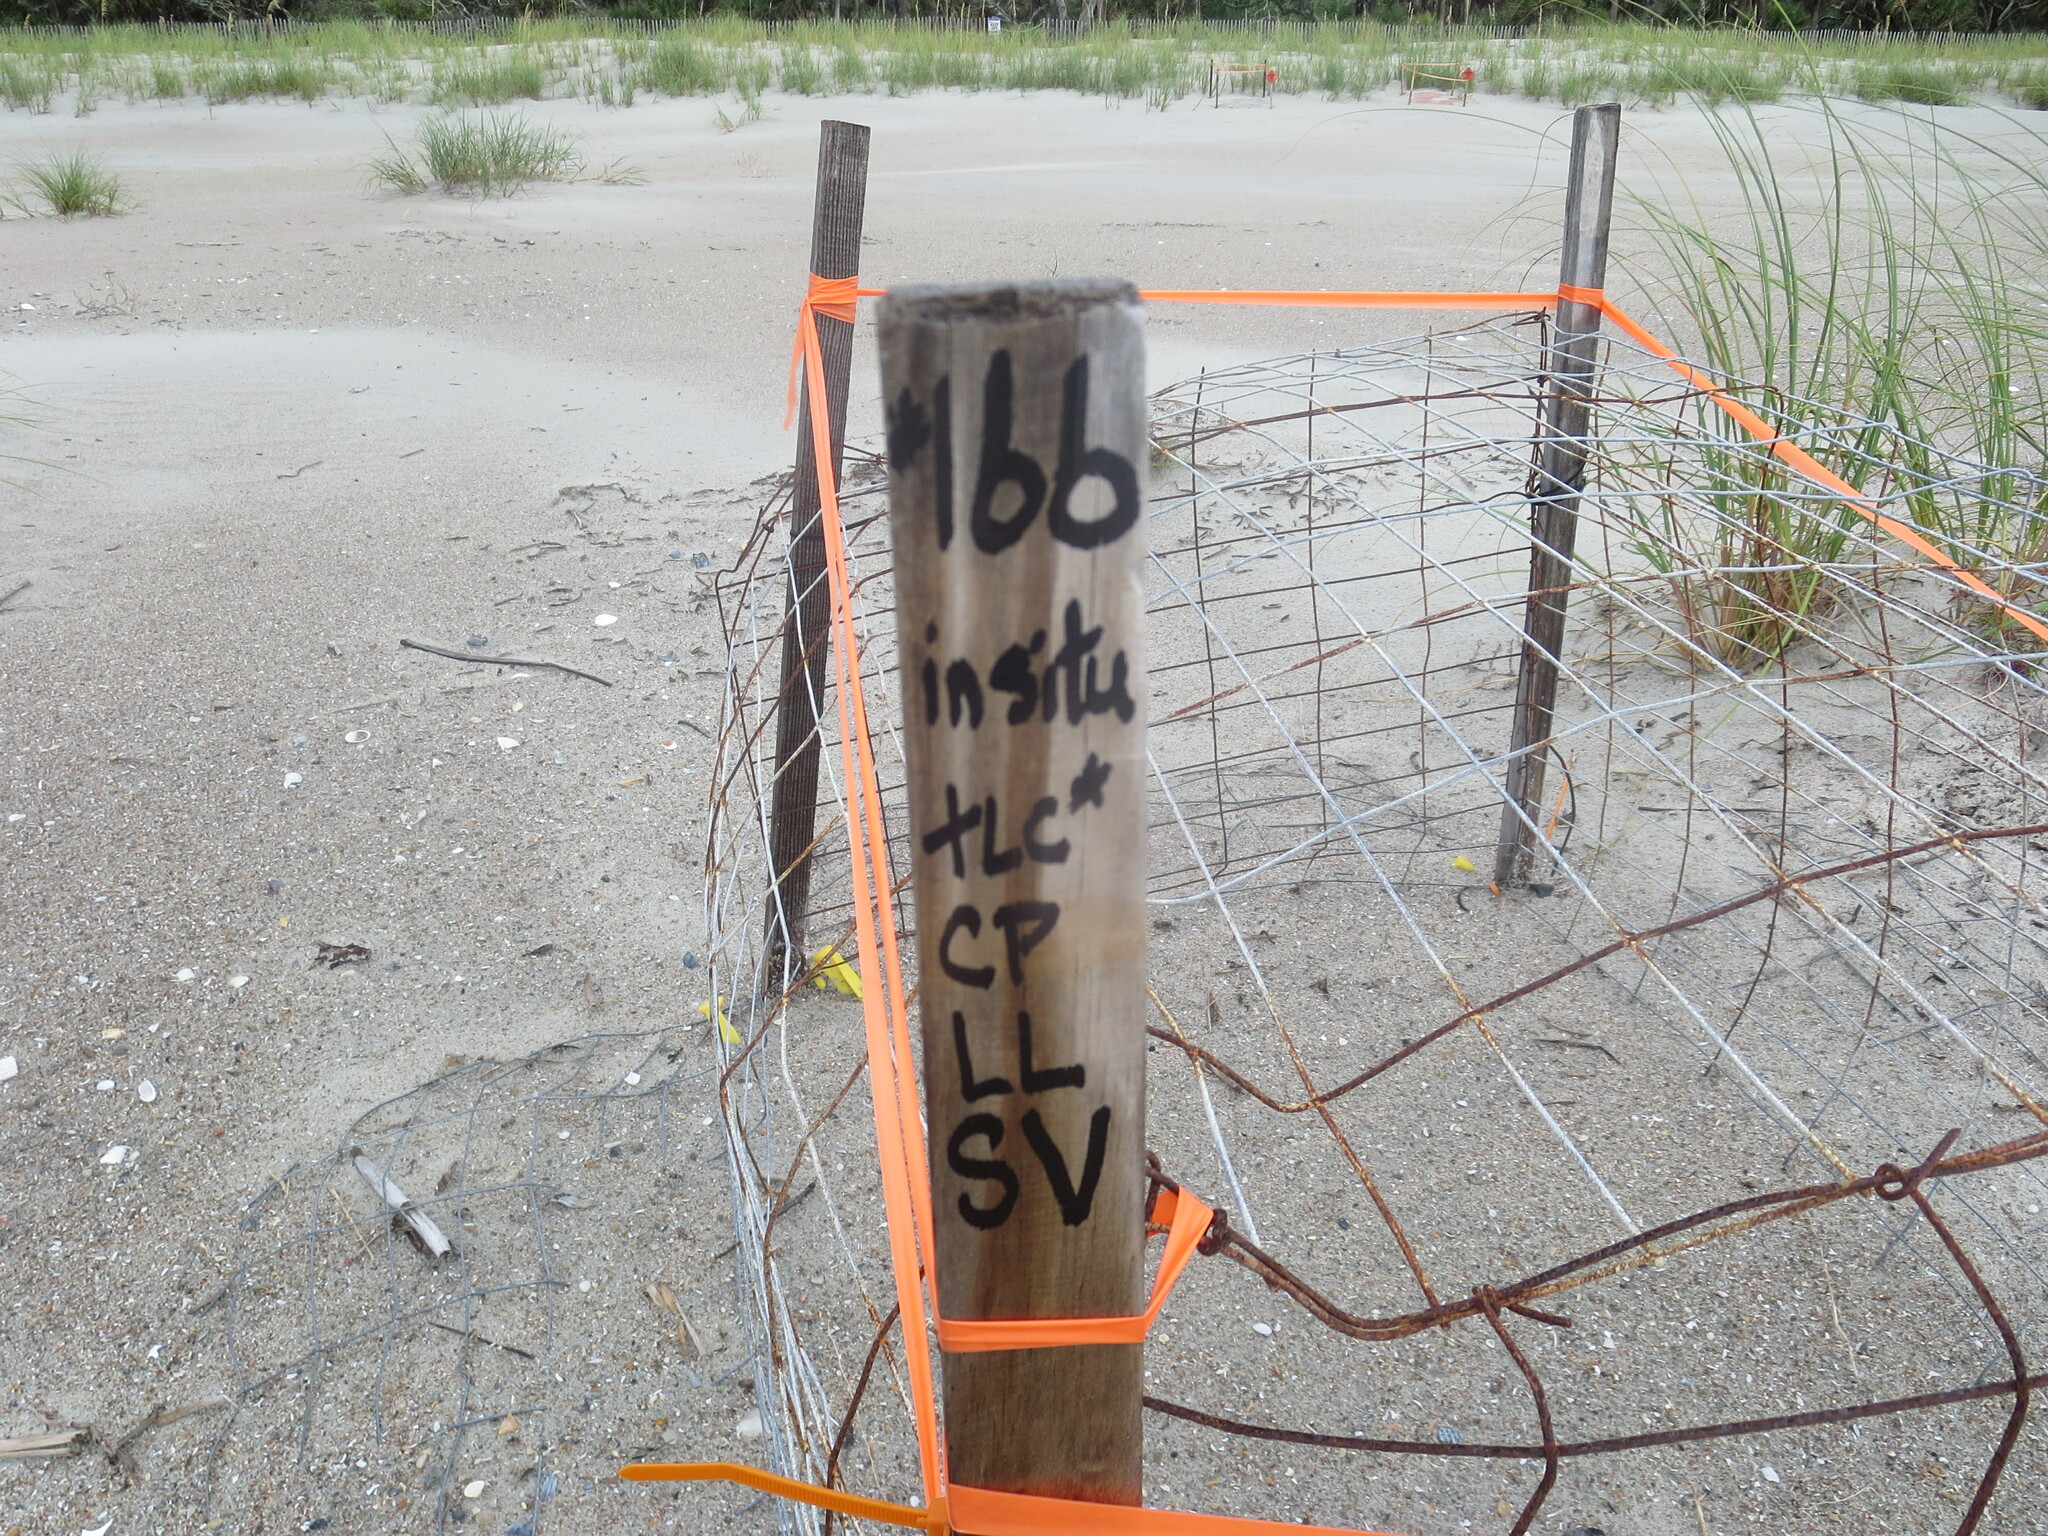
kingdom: Animalia
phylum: Chordata
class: Testudines
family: Cheloniidae
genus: Caretta
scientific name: Caretta caretta
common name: Loggerhead sea turtle
